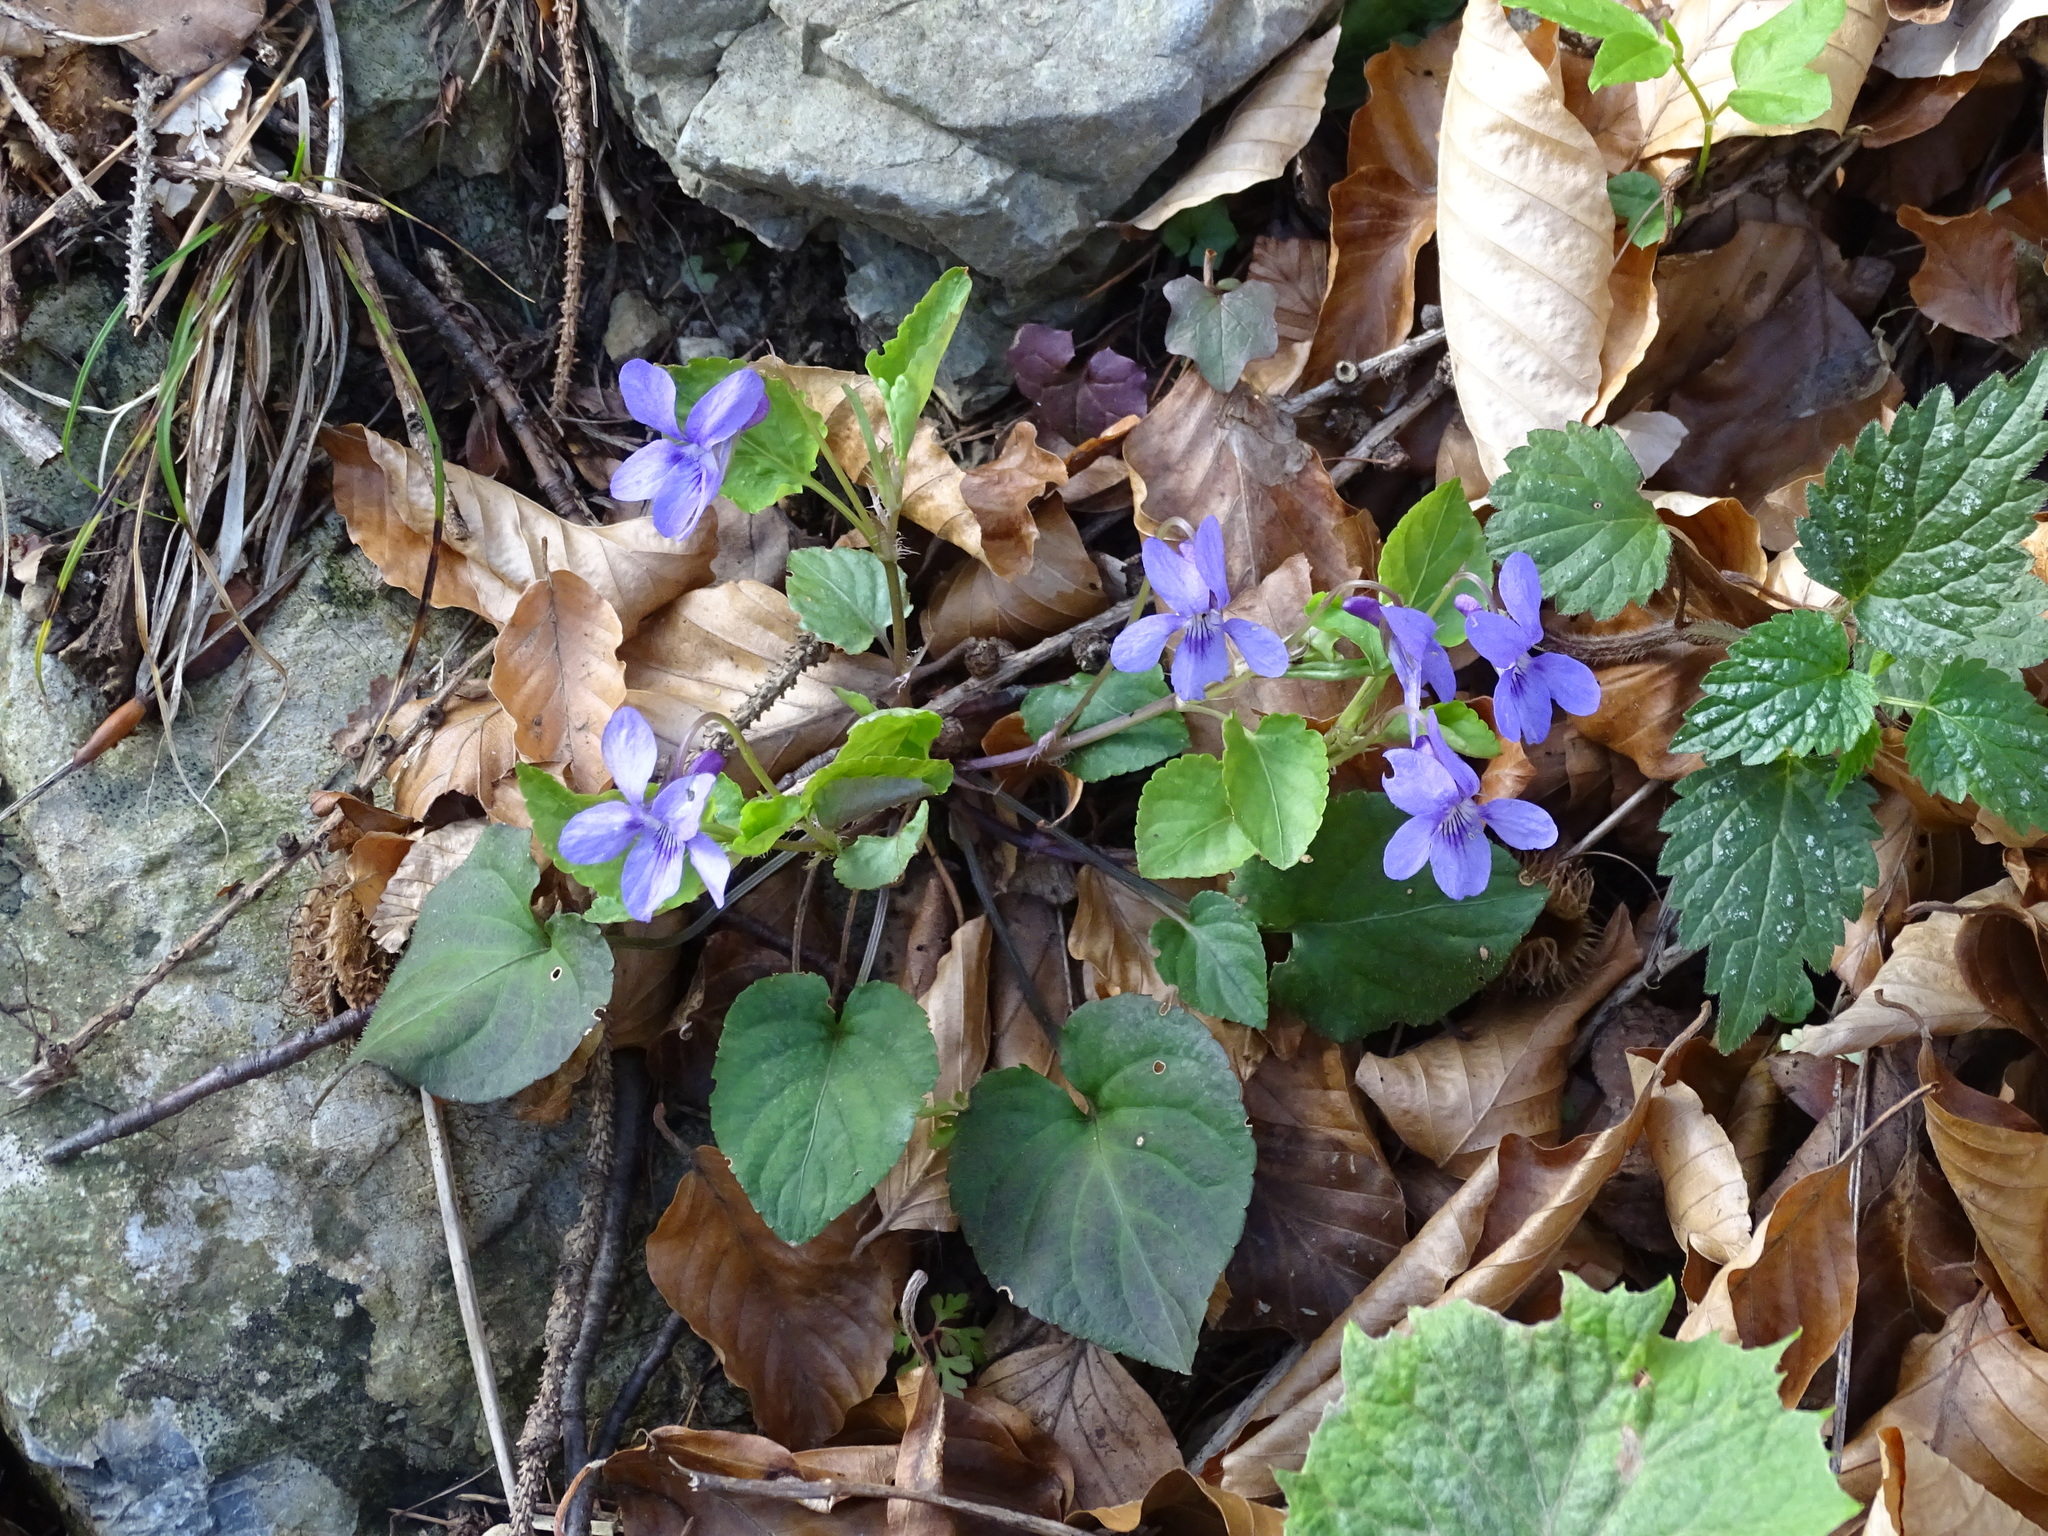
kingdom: Plantae
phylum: Tracheophyta
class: Magnoliopsida
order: Malpighiales
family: Violaceae
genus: Viola
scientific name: Viola reichenbachiana
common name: Early dog-violet
